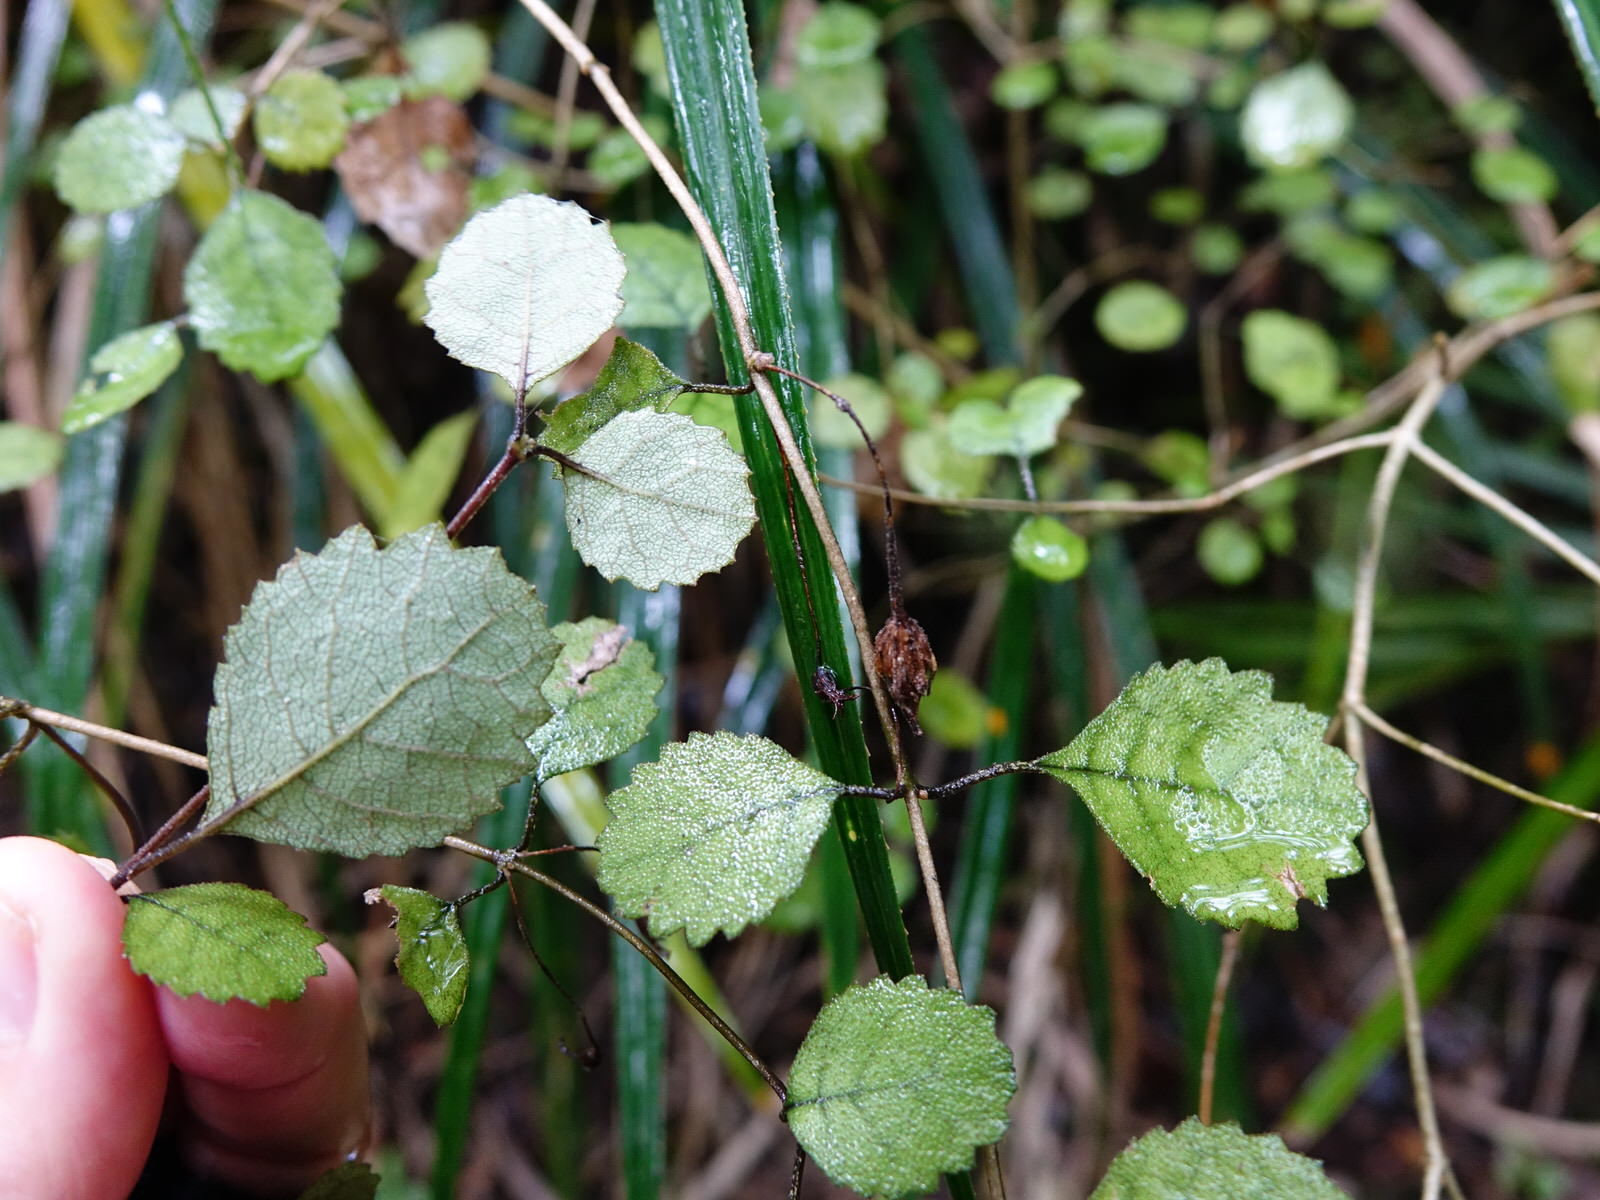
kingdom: Plantae
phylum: Tracheophyta
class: Magnoliopsida
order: Lamiales
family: Gesneriaceae
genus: Rhabdothamnus
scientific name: Rhabdothamnus solandri
